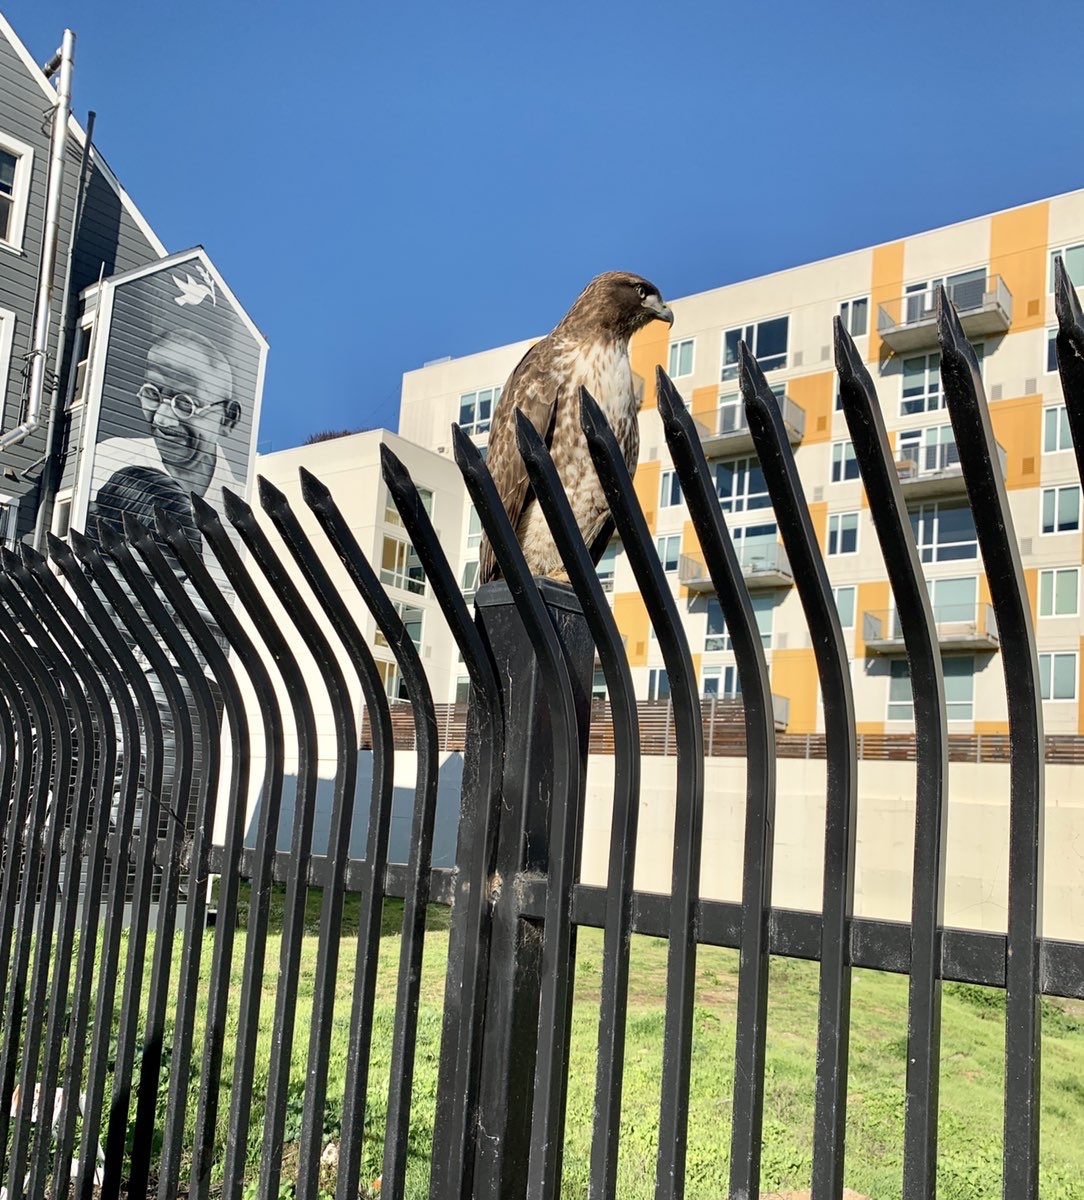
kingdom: Animalia
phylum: Chordata
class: Aves
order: Accipitriformes
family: Accipitridae
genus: Buteo
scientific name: Buteo jamaicensis
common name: Red-tailed hawk
